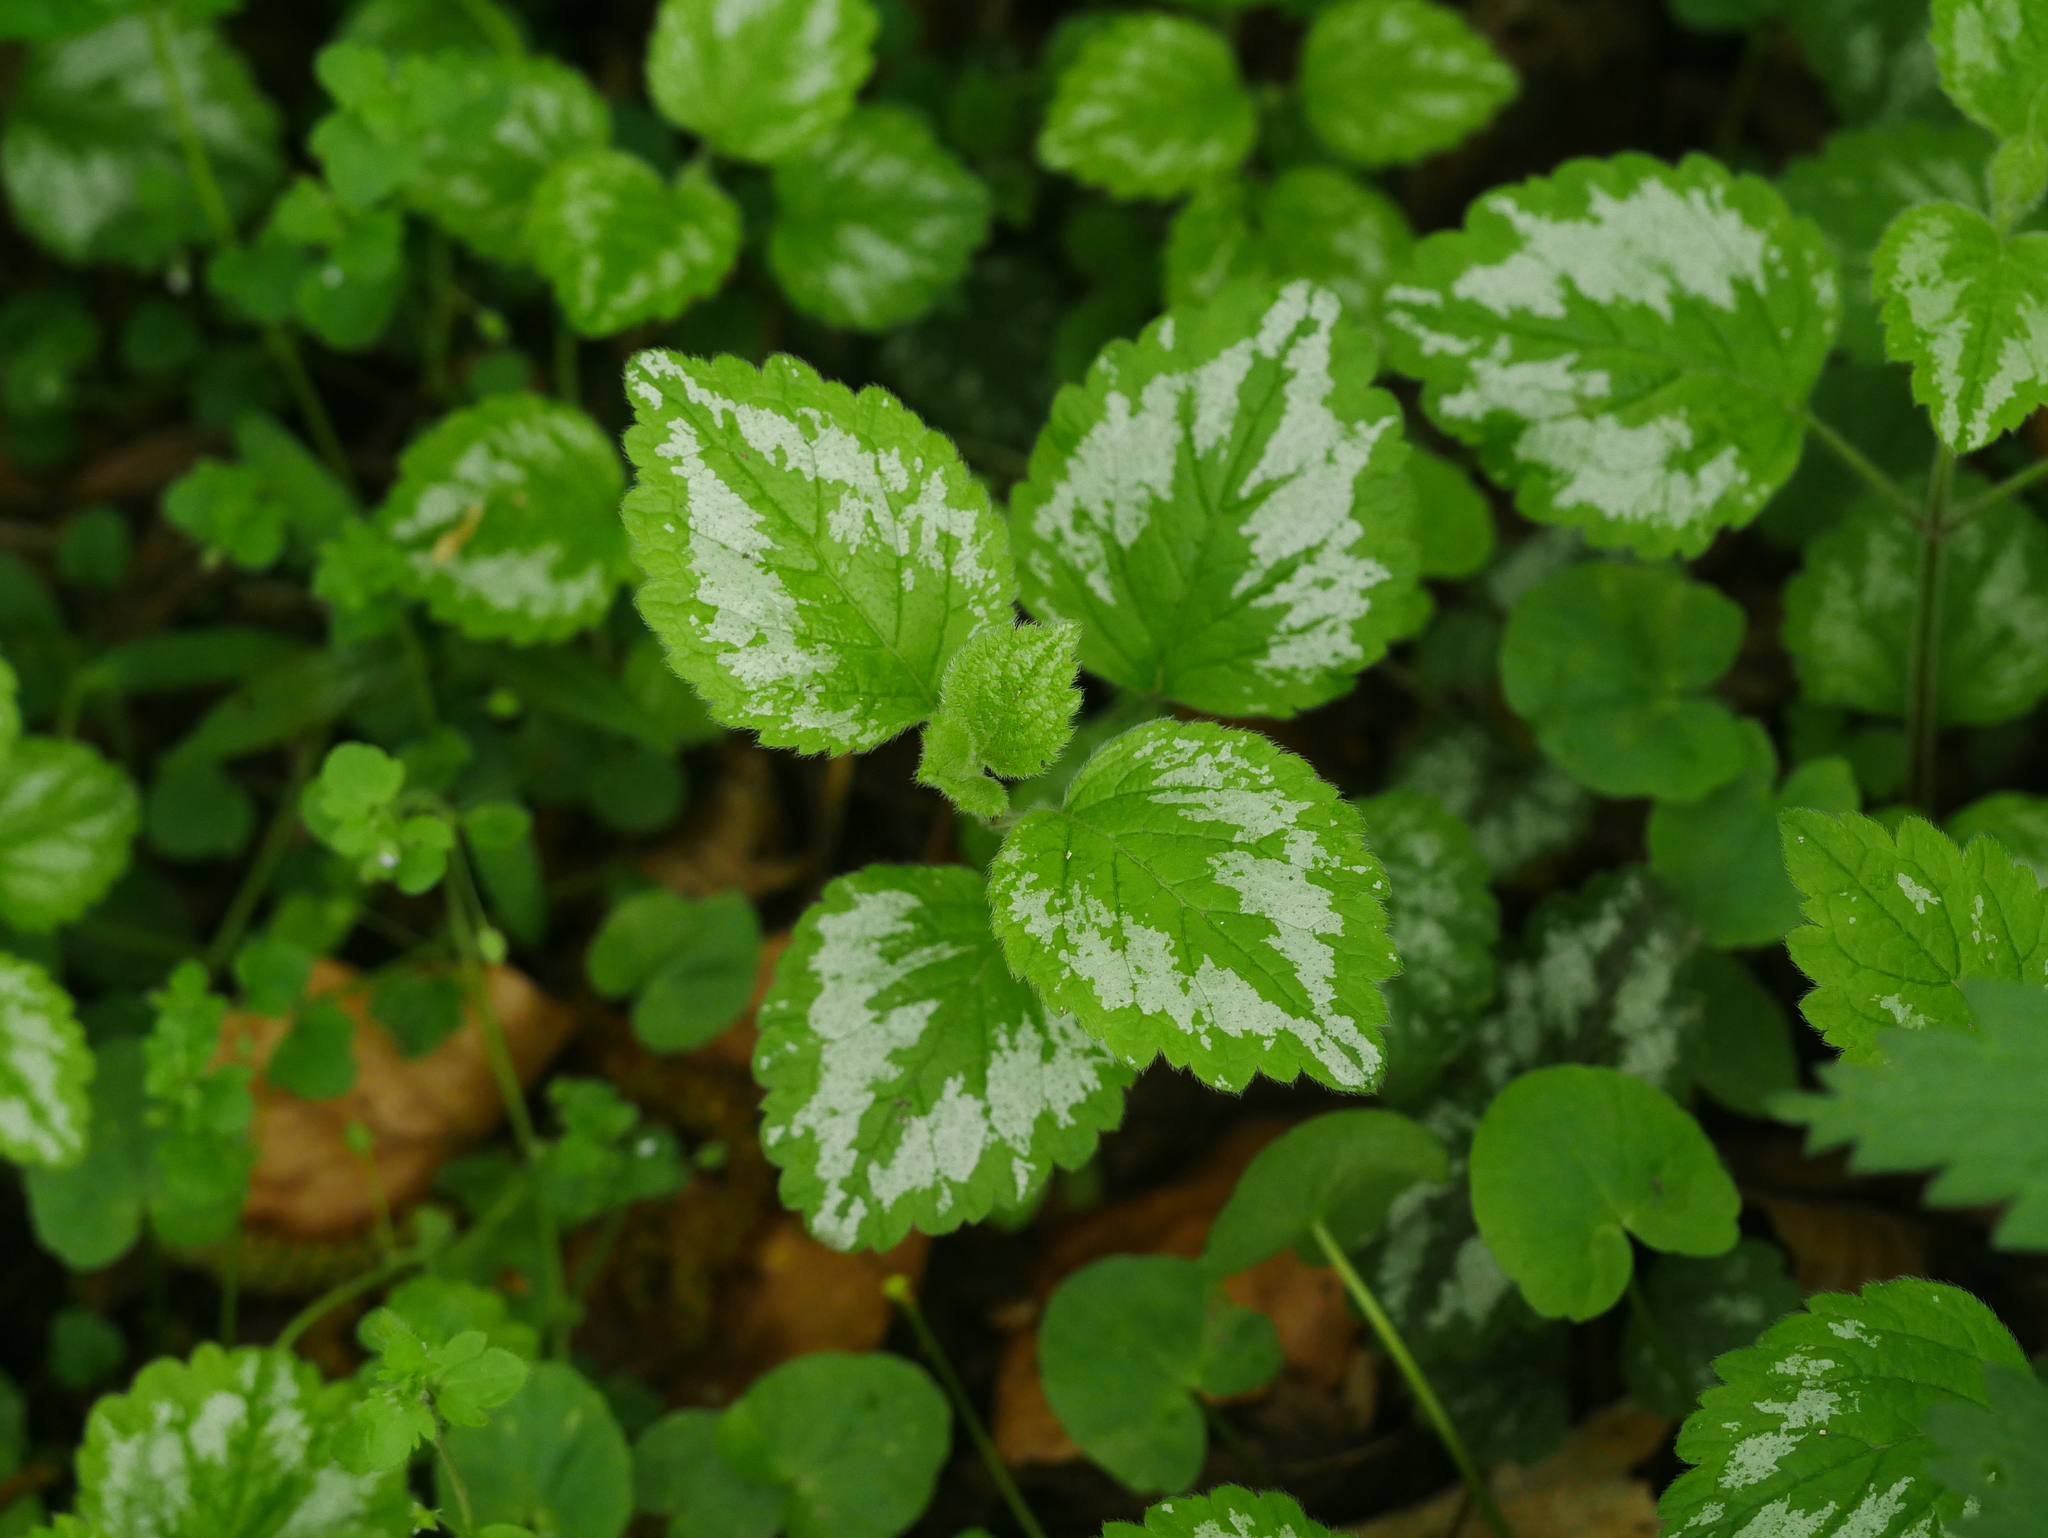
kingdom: Plantae
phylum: Tracheophyta
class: Magnoliopsida
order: Lamiales
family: Lamiaceae
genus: Lamium
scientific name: Lamium galeobdolon
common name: Yellow archangel
